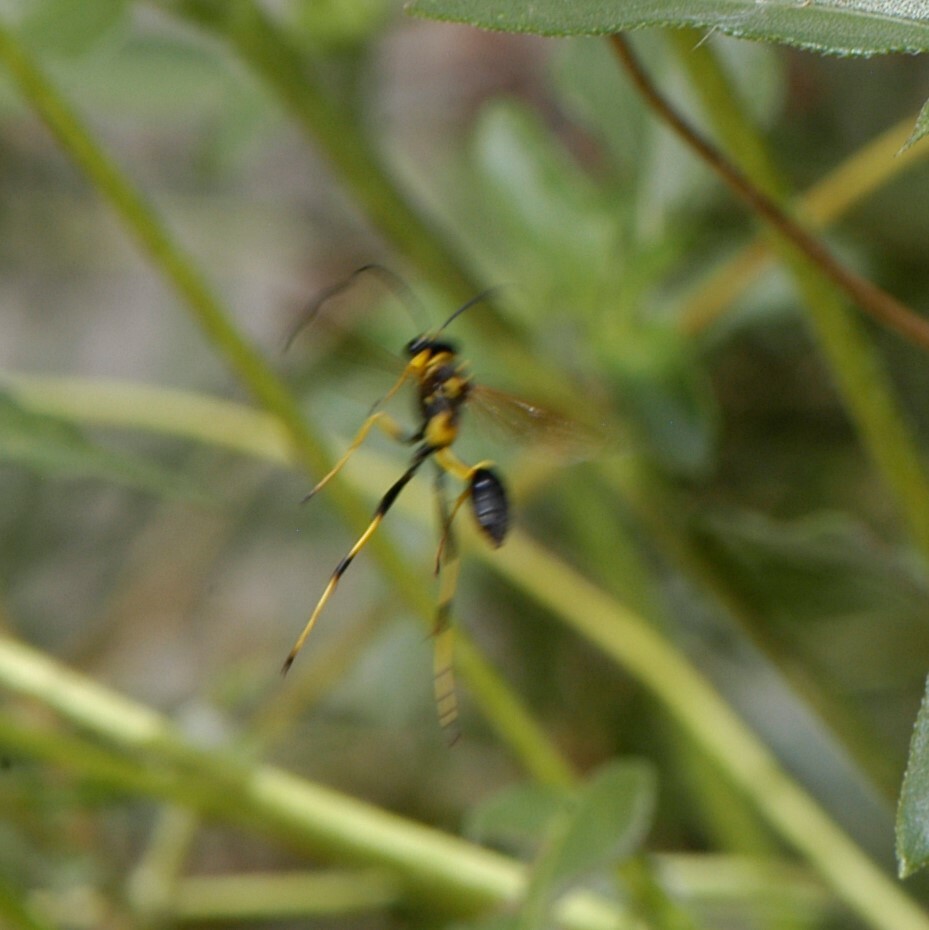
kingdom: Animalia
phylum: Arthropoda
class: Insecta
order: Hymenoptera
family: Sphecidae
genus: Sceliphron
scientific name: Sceliphron caementarium
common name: Mud dauber
